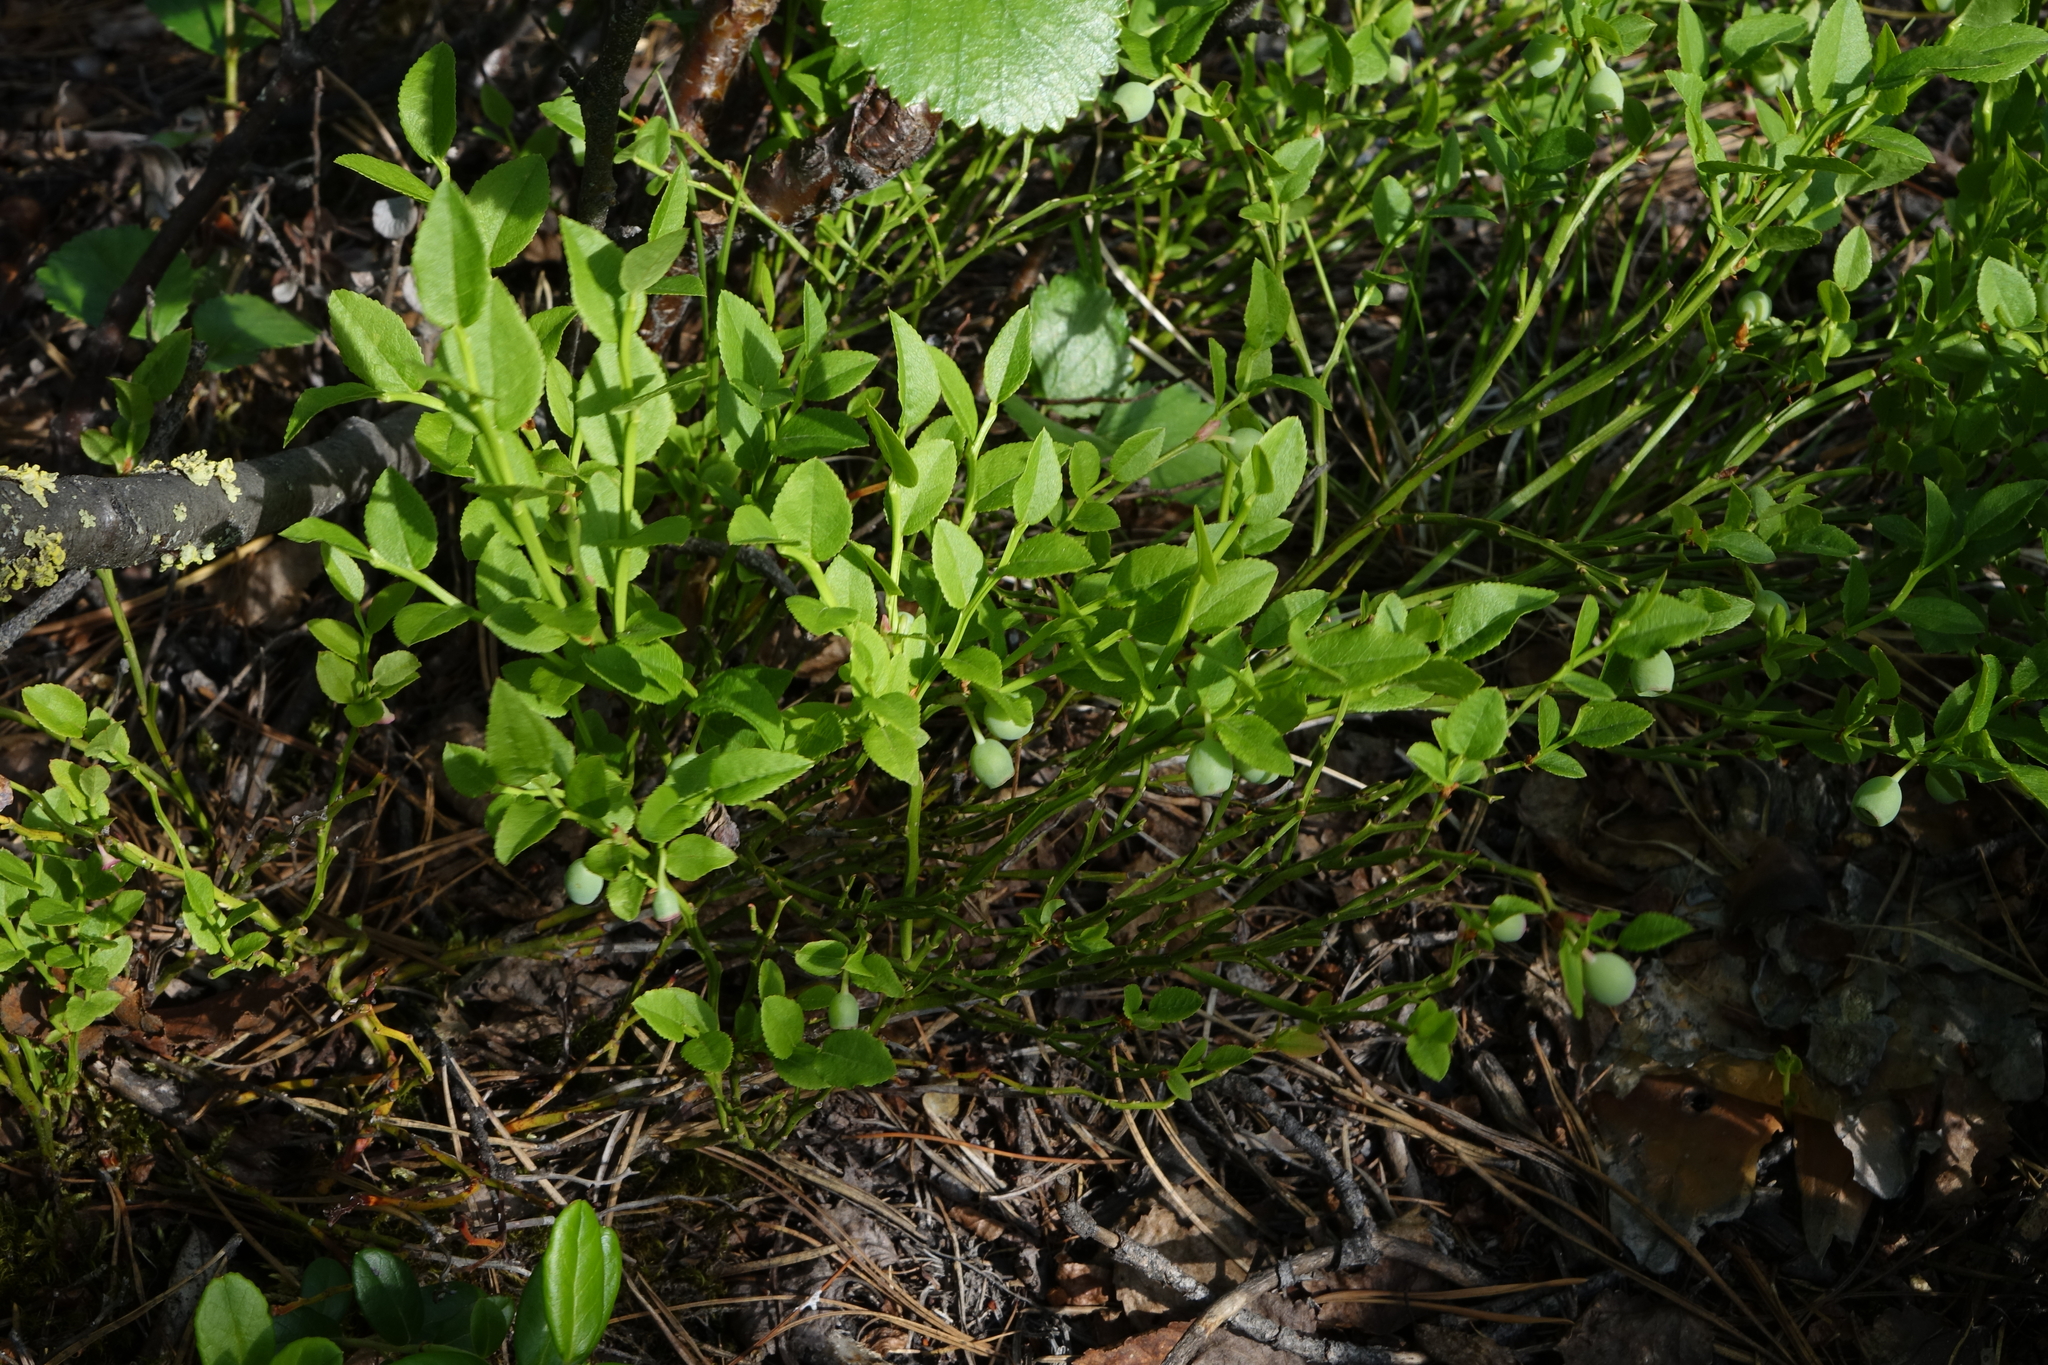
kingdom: Plantae
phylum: Tracheophyta
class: Magnoliopsida
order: Ericales
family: Ericaceae
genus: Vaccinium
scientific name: Vaccinium myrtillus
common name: Bilberry
